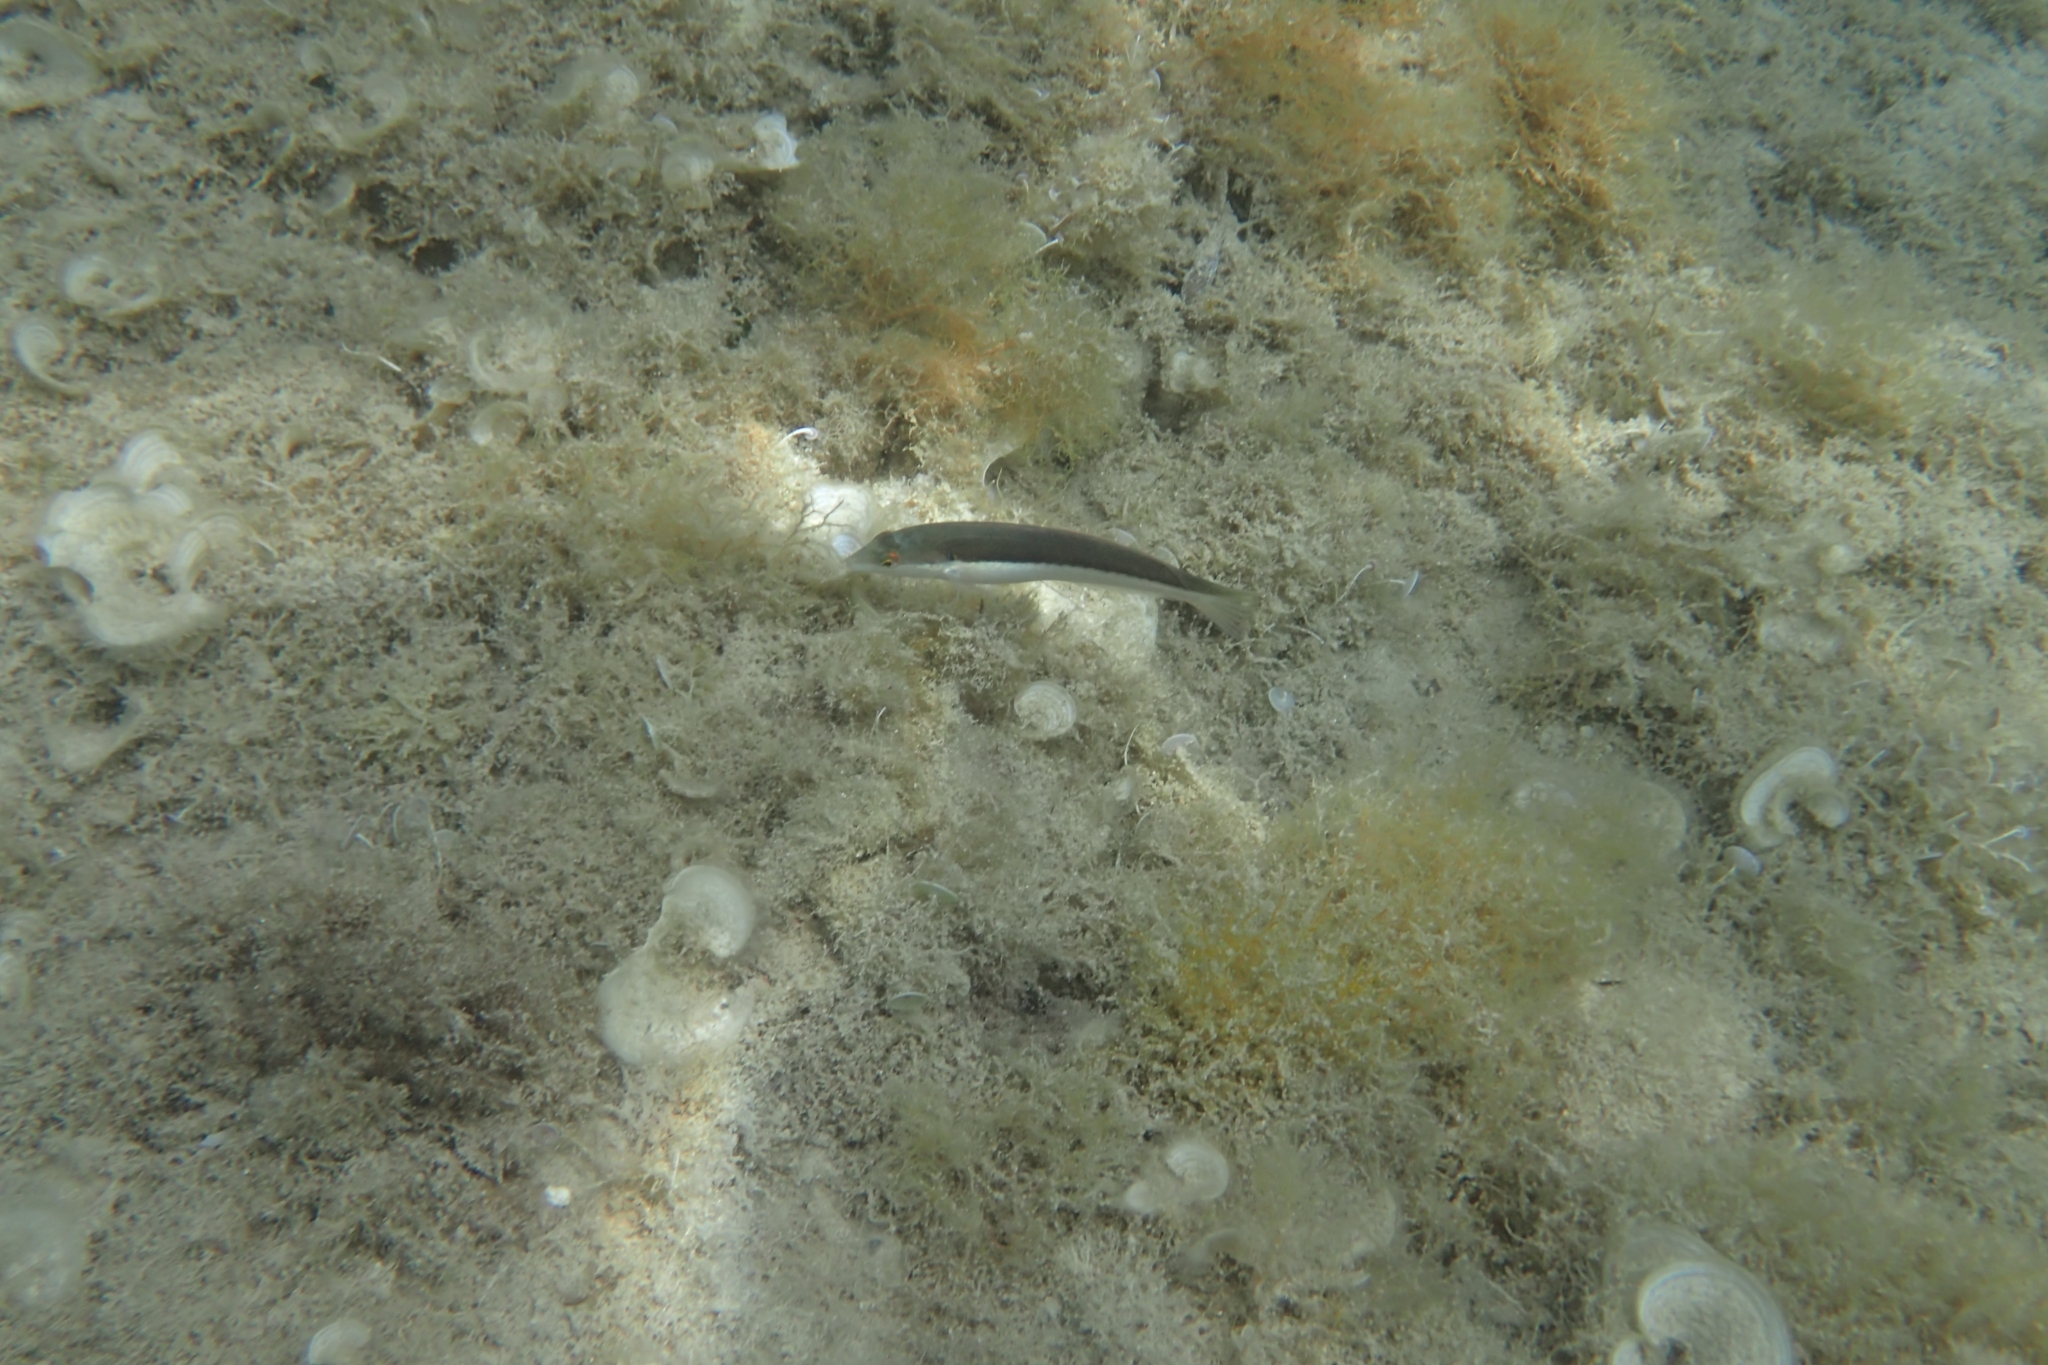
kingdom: Animalia
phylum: Chordata
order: Perciformes
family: Labridae
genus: Coris
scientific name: Coris julis
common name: Rainbow wrasse
